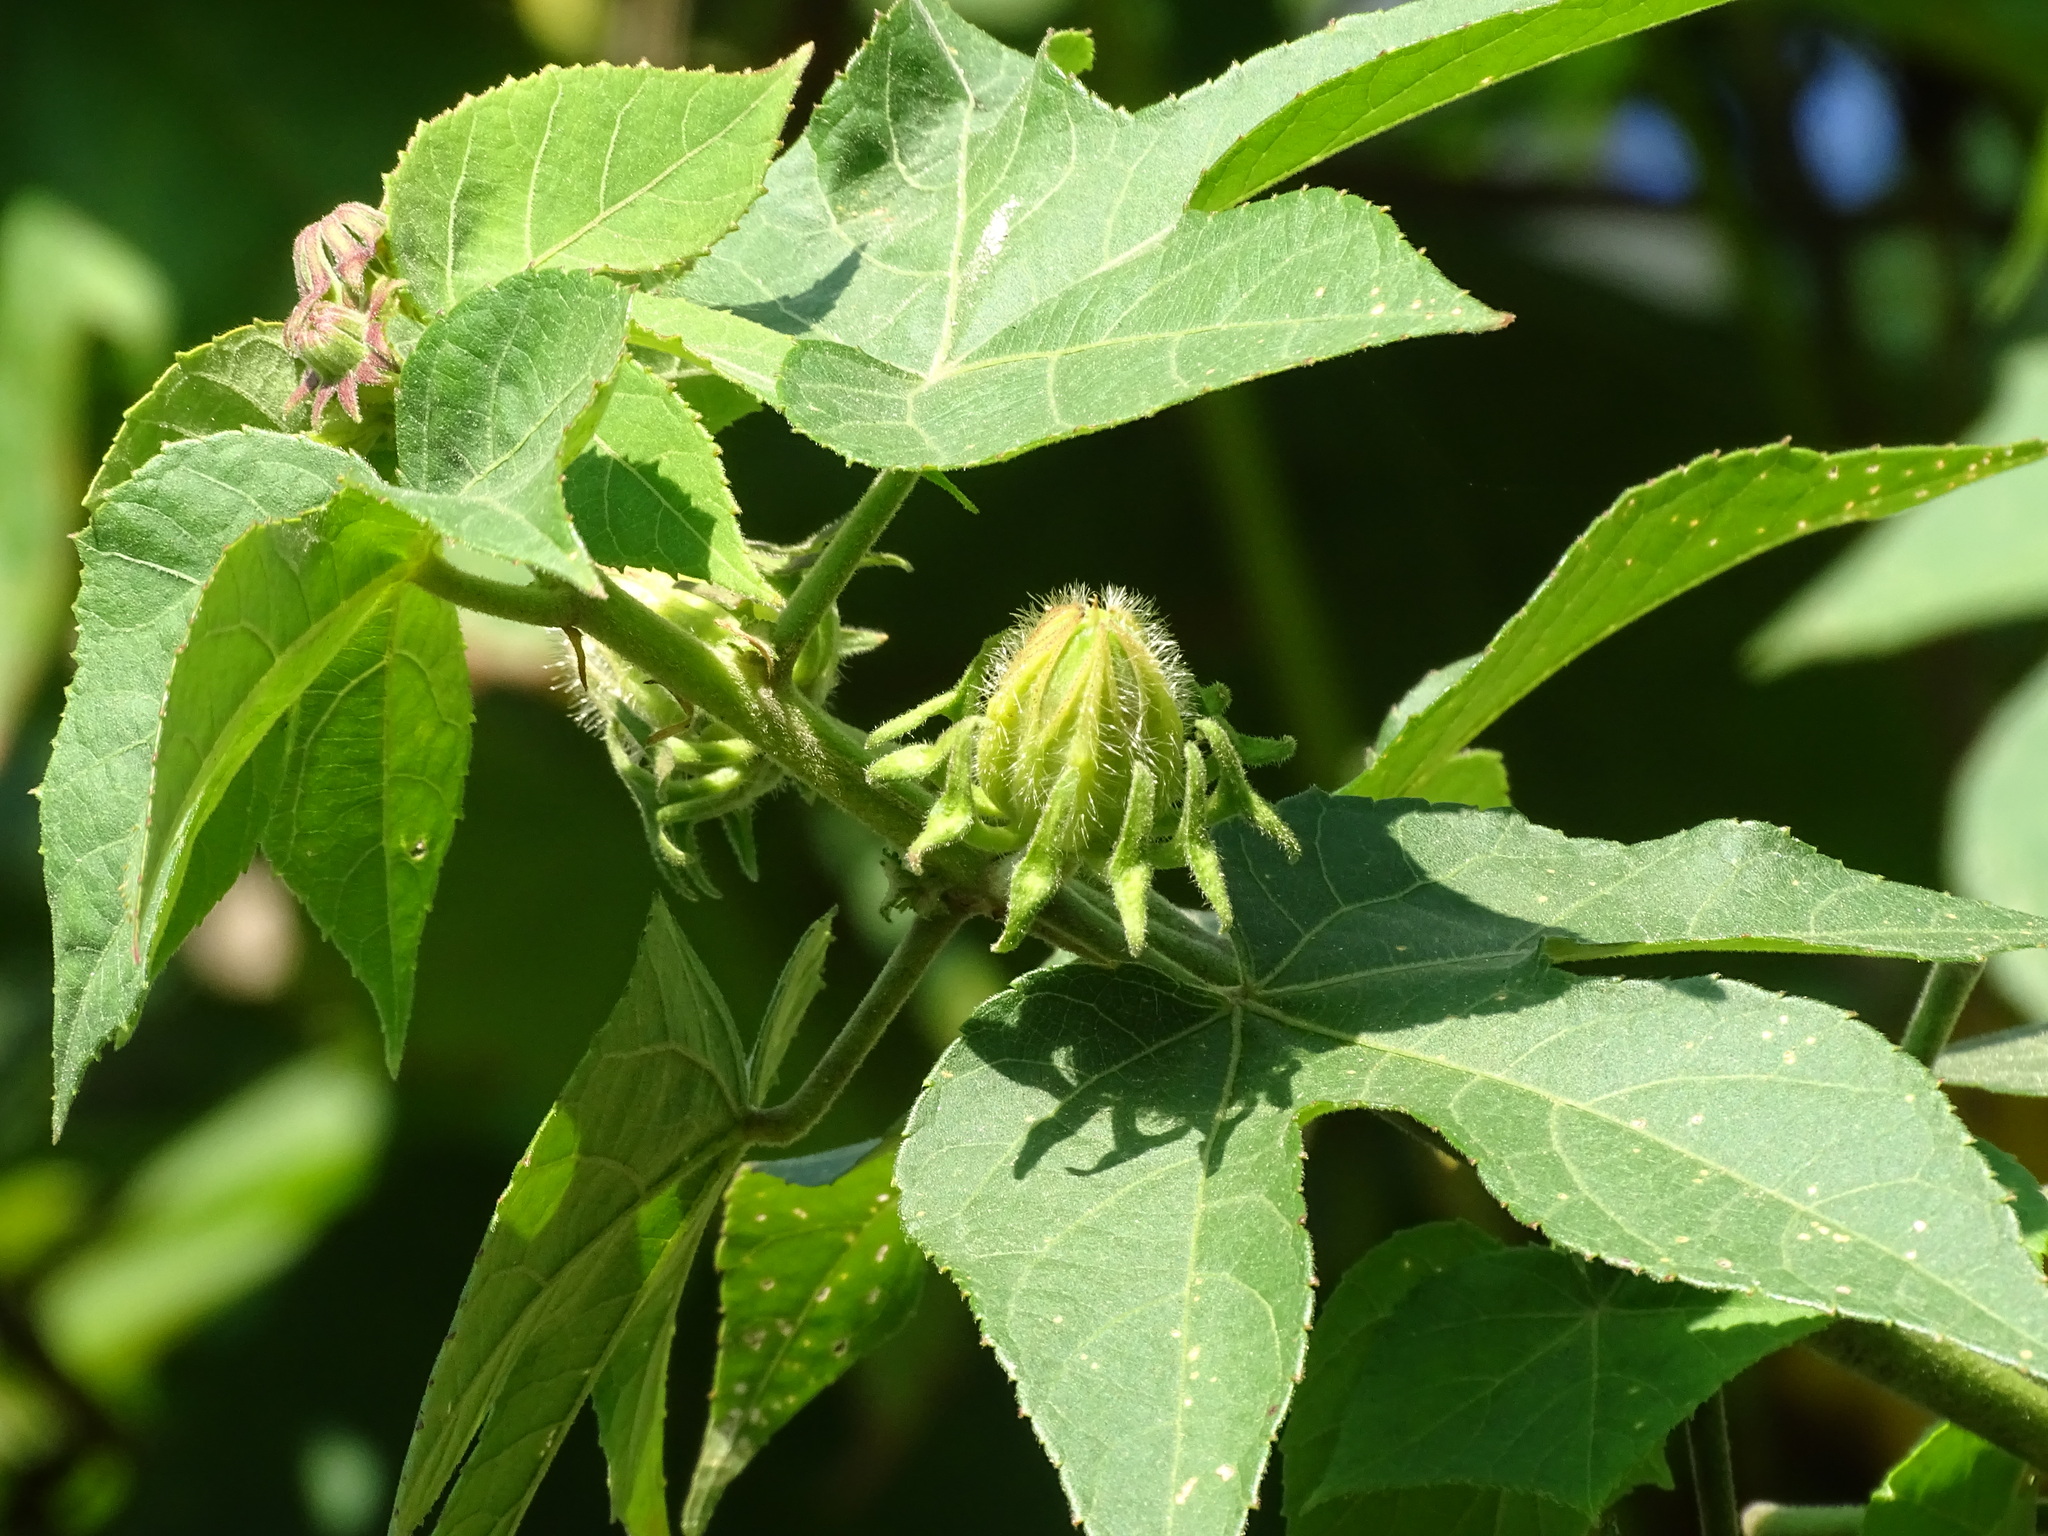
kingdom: Plantae
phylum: Tracheophyta
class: Magnoliopsida
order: Malvales
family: Malvaceae
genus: Hibiscus
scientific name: Hibiscus uncinellus
